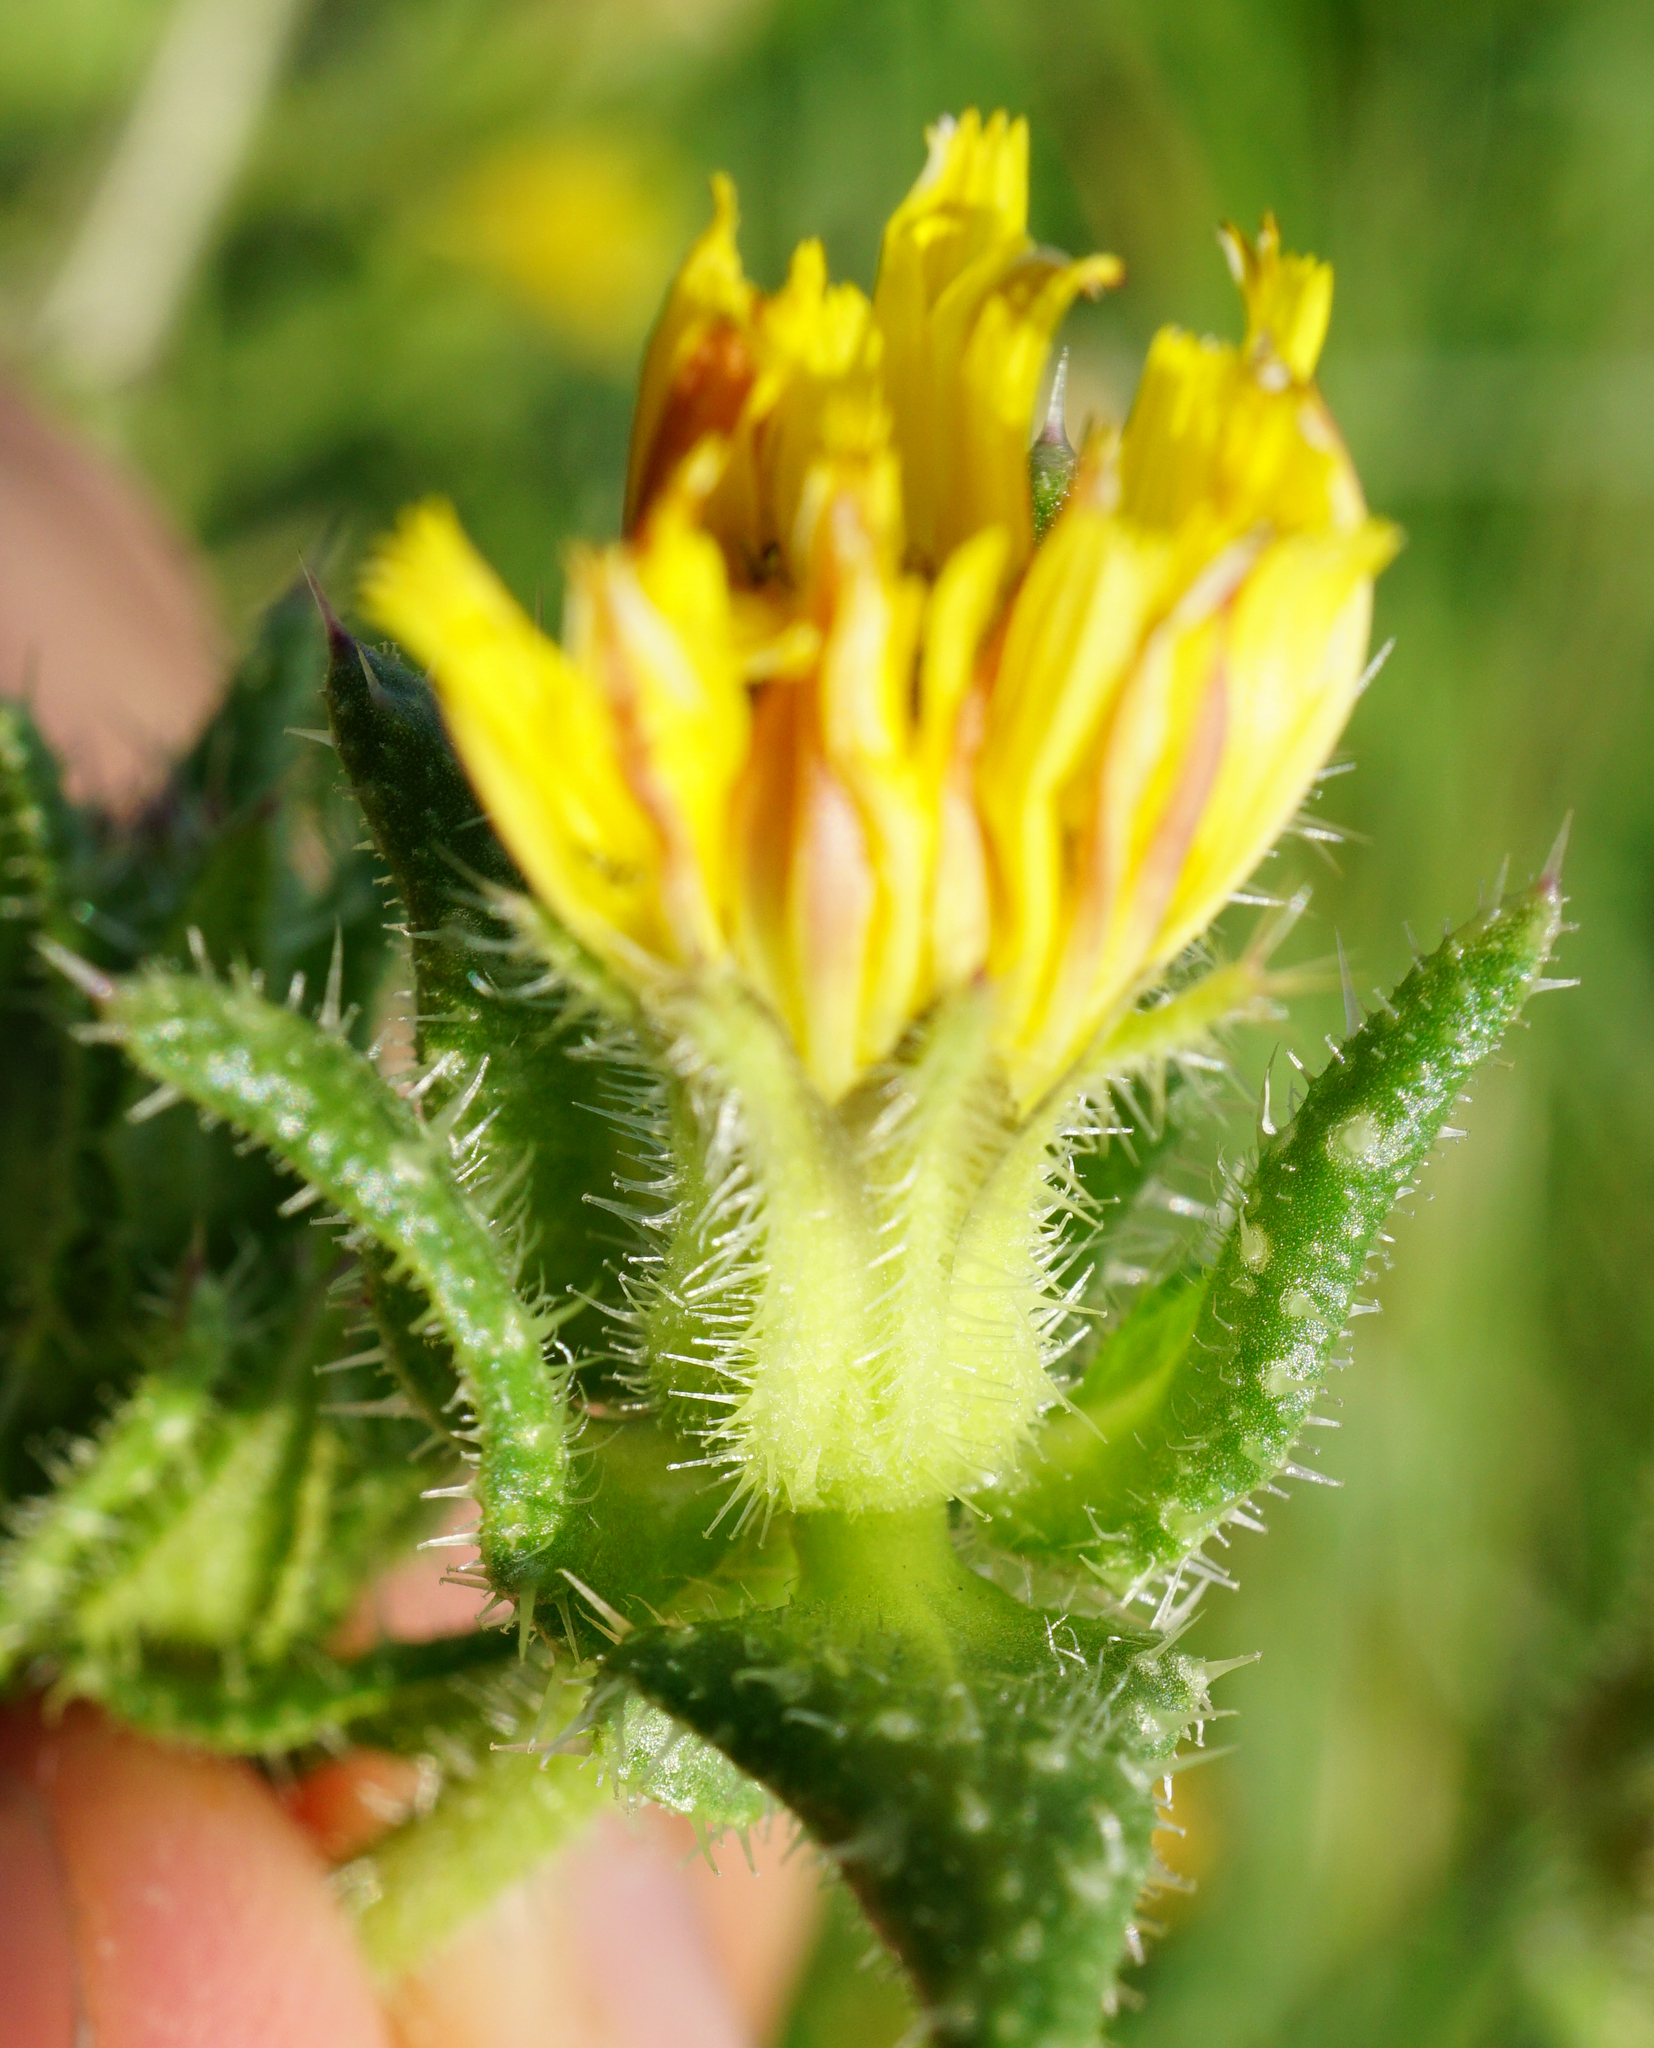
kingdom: Plantae
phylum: Tracheophyta
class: Magnoliopsida
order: Asterales
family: Asteraceae
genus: Helminthotheca
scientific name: Helminthotheca echioides
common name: Ox-tongue
